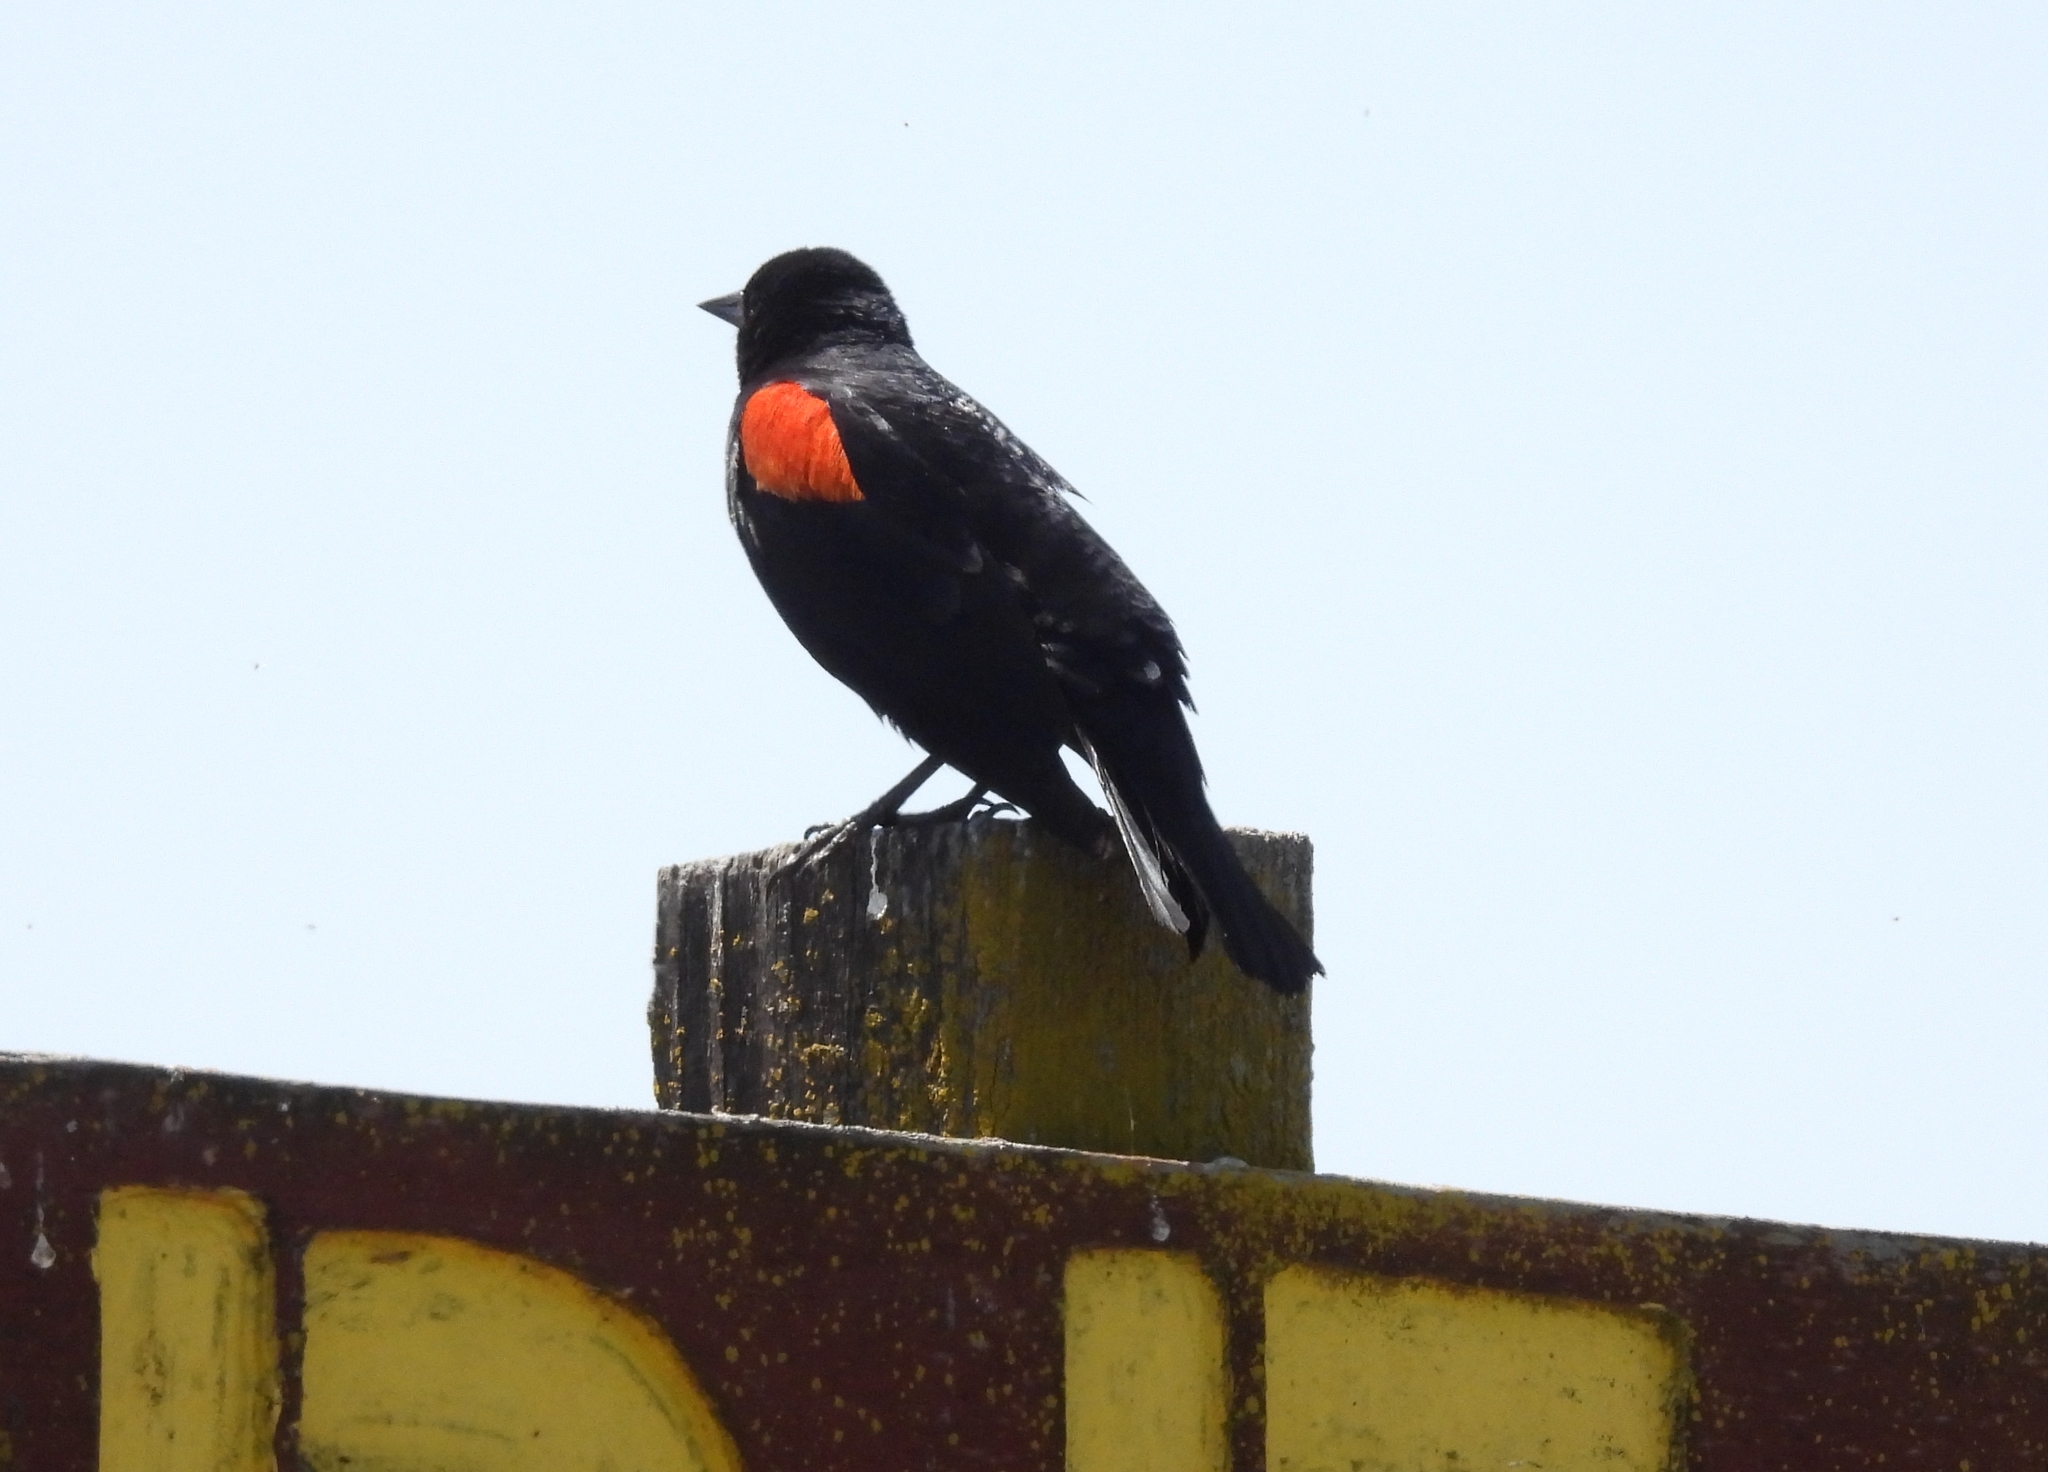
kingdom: Animalia
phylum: Chordata
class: Aves
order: Passeriformes
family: Icteridae
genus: Agelaius
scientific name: Agelaius phoeniceus
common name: Red-winged blackbird
